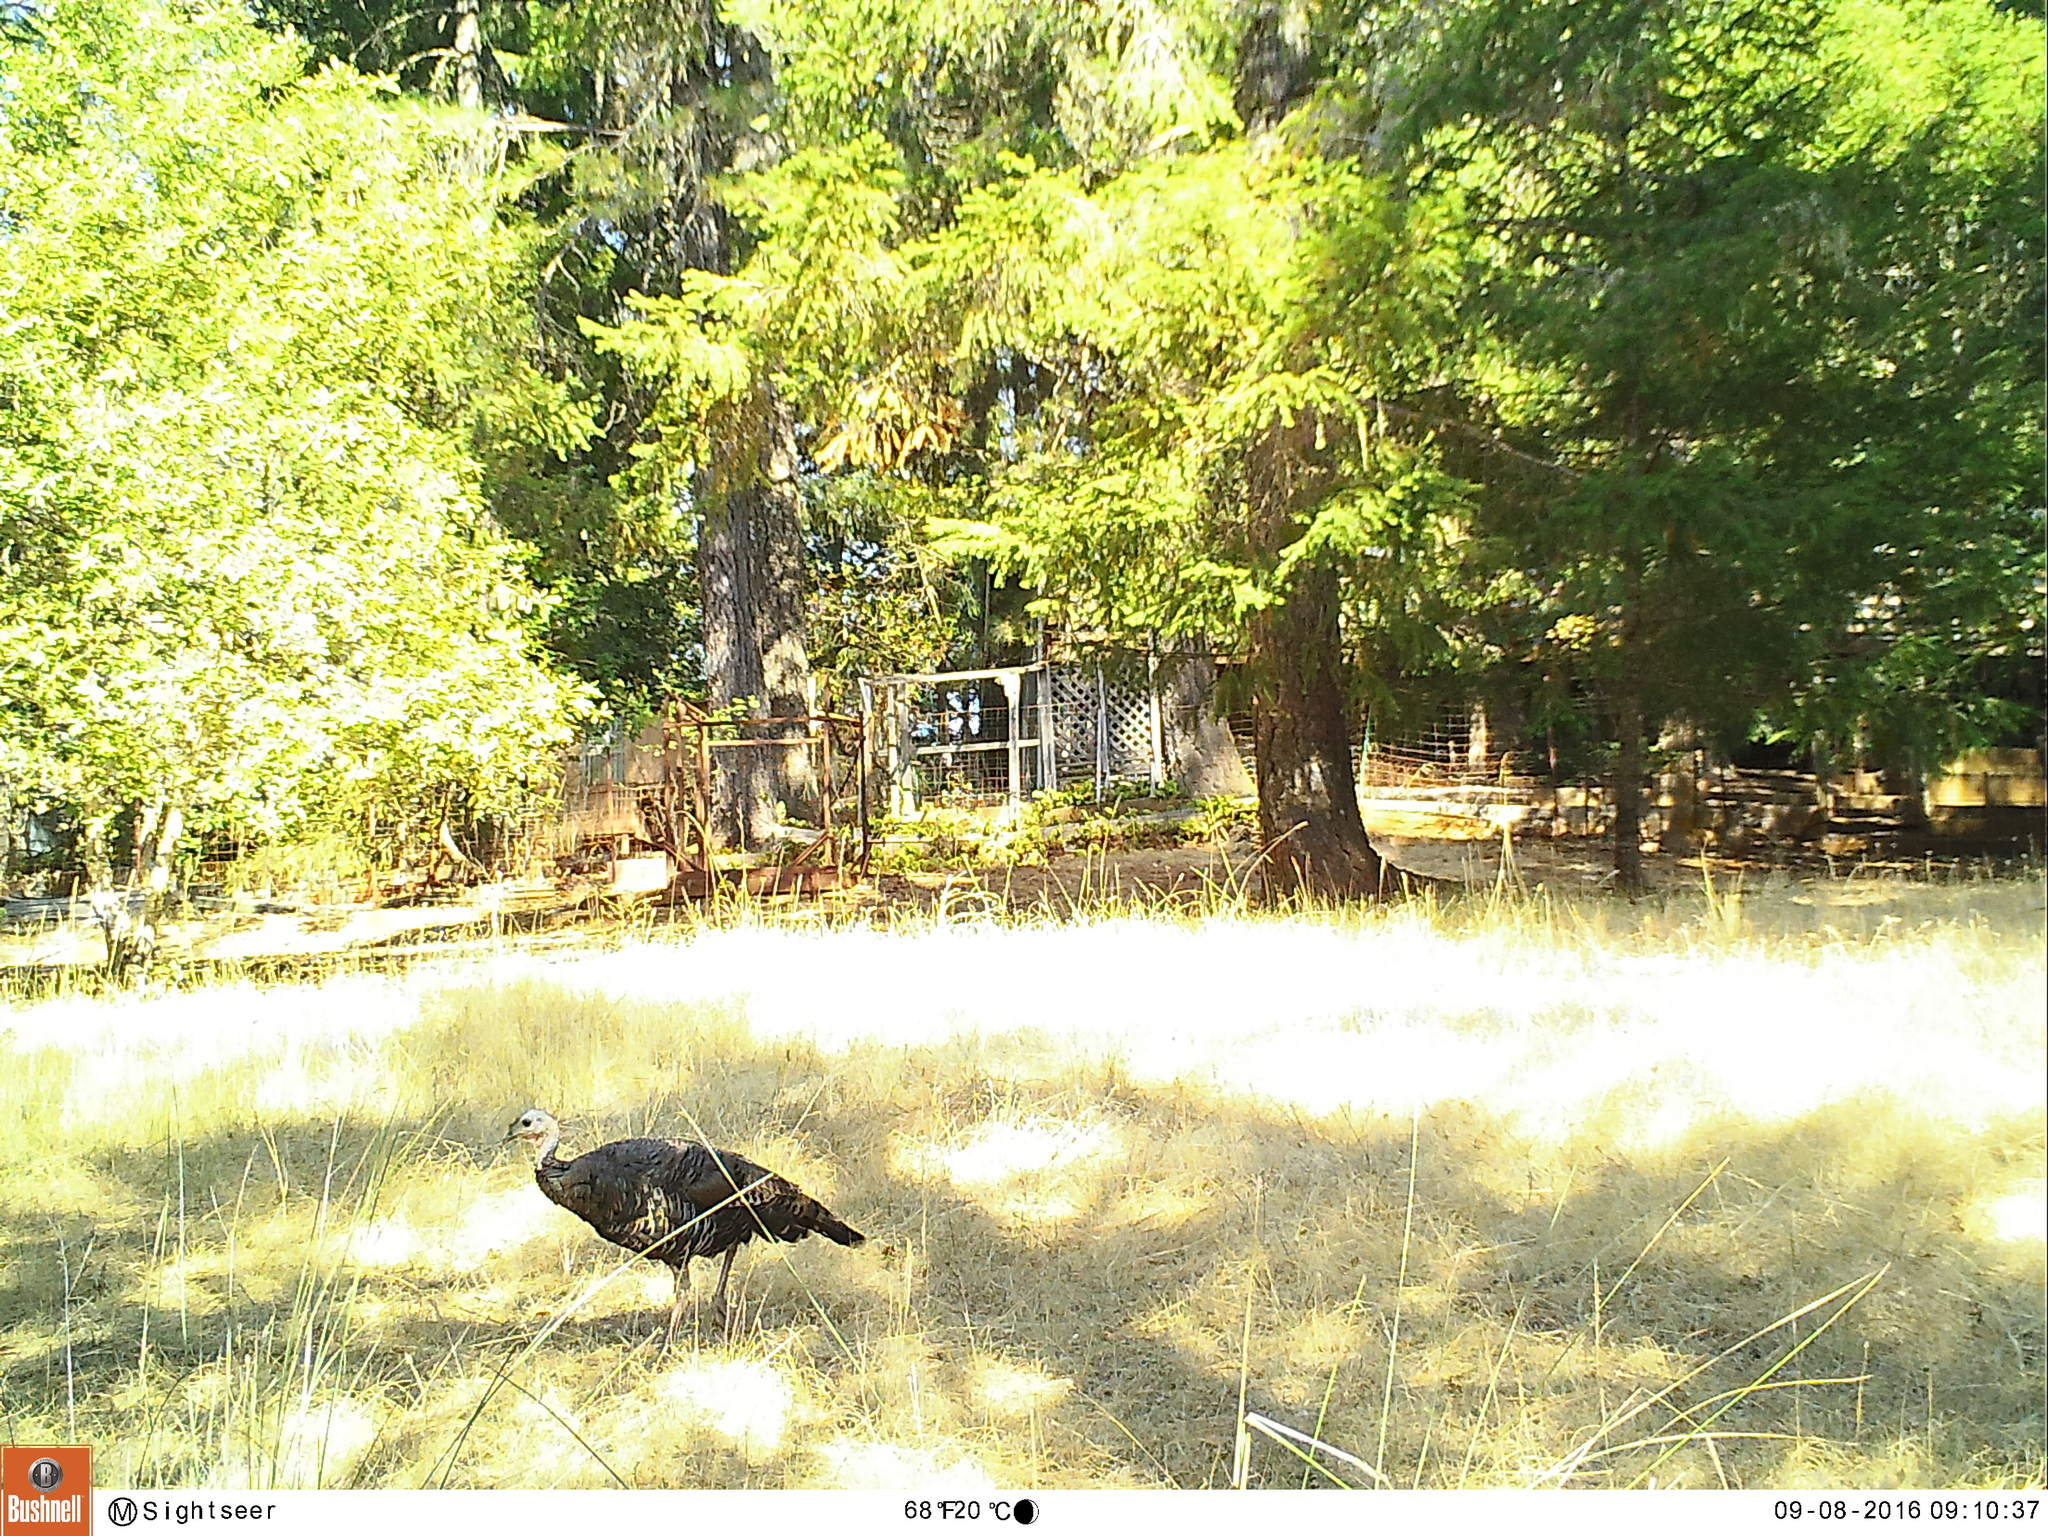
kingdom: Animalia
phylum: Chordata
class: Aves
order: Galliformes
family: Phasianidae
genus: Meleagris
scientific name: Meleagris gallopavo
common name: Wild turkey
